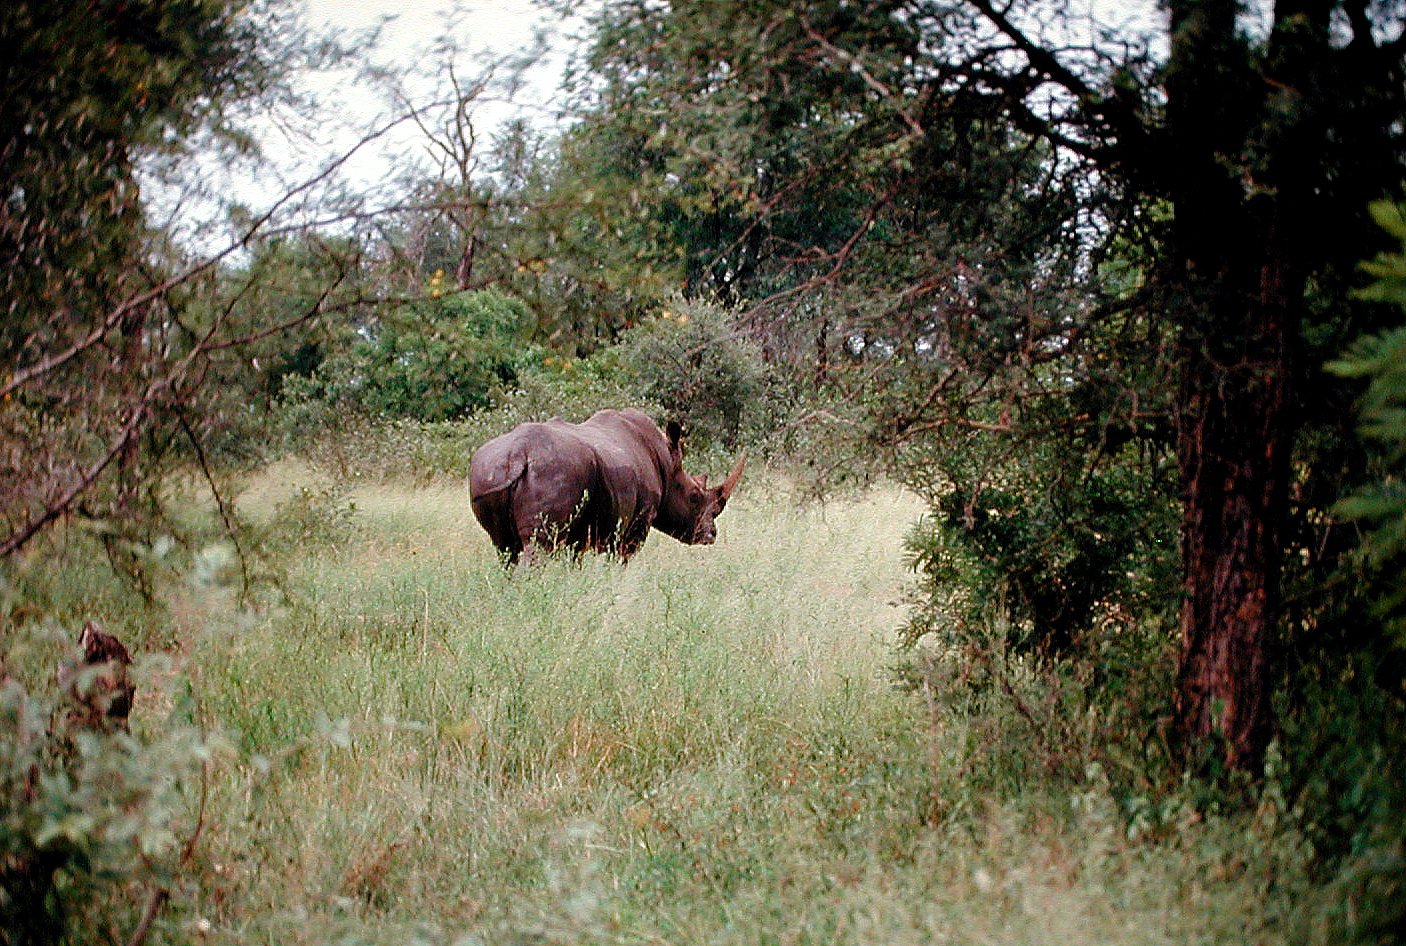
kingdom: Animalia
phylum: Chordata
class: Mammalia
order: Perissodactyla
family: Rhinocerotidae
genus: Ceratotherium
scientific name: Ceratotherium simum
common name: White rhinoceros
